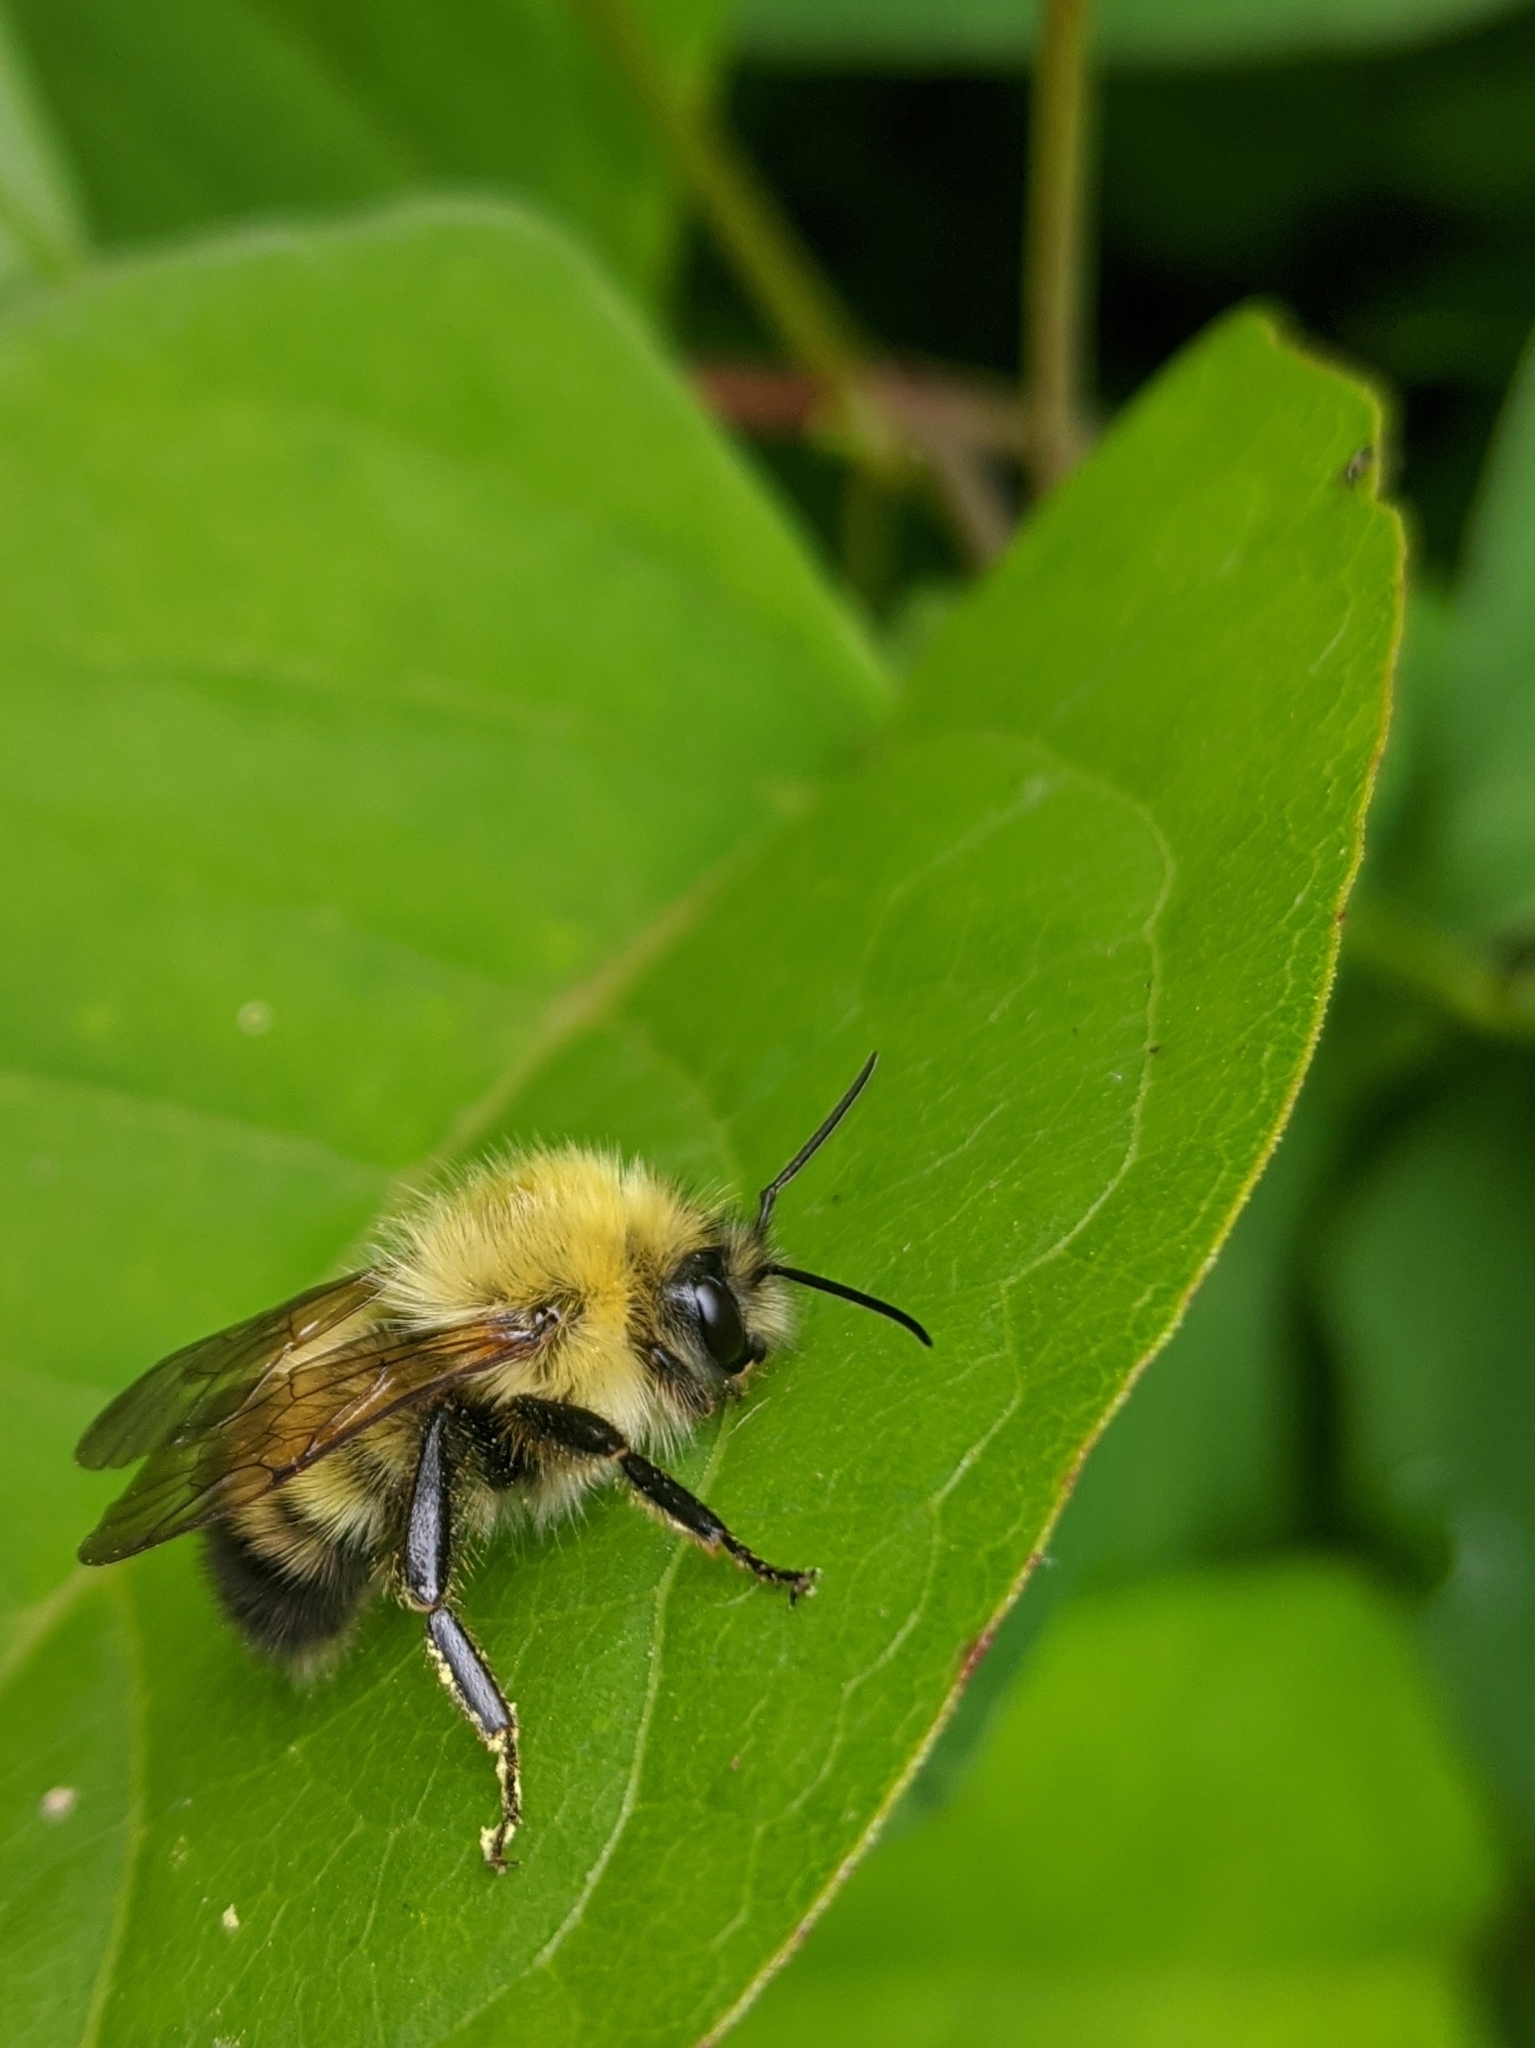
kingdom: Animalia
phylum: Arthropoda
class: Insecta
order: Hymenoptera
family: Apidae
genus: Bombus
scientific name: Bombus perplexus
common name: Confusing bumble bee
